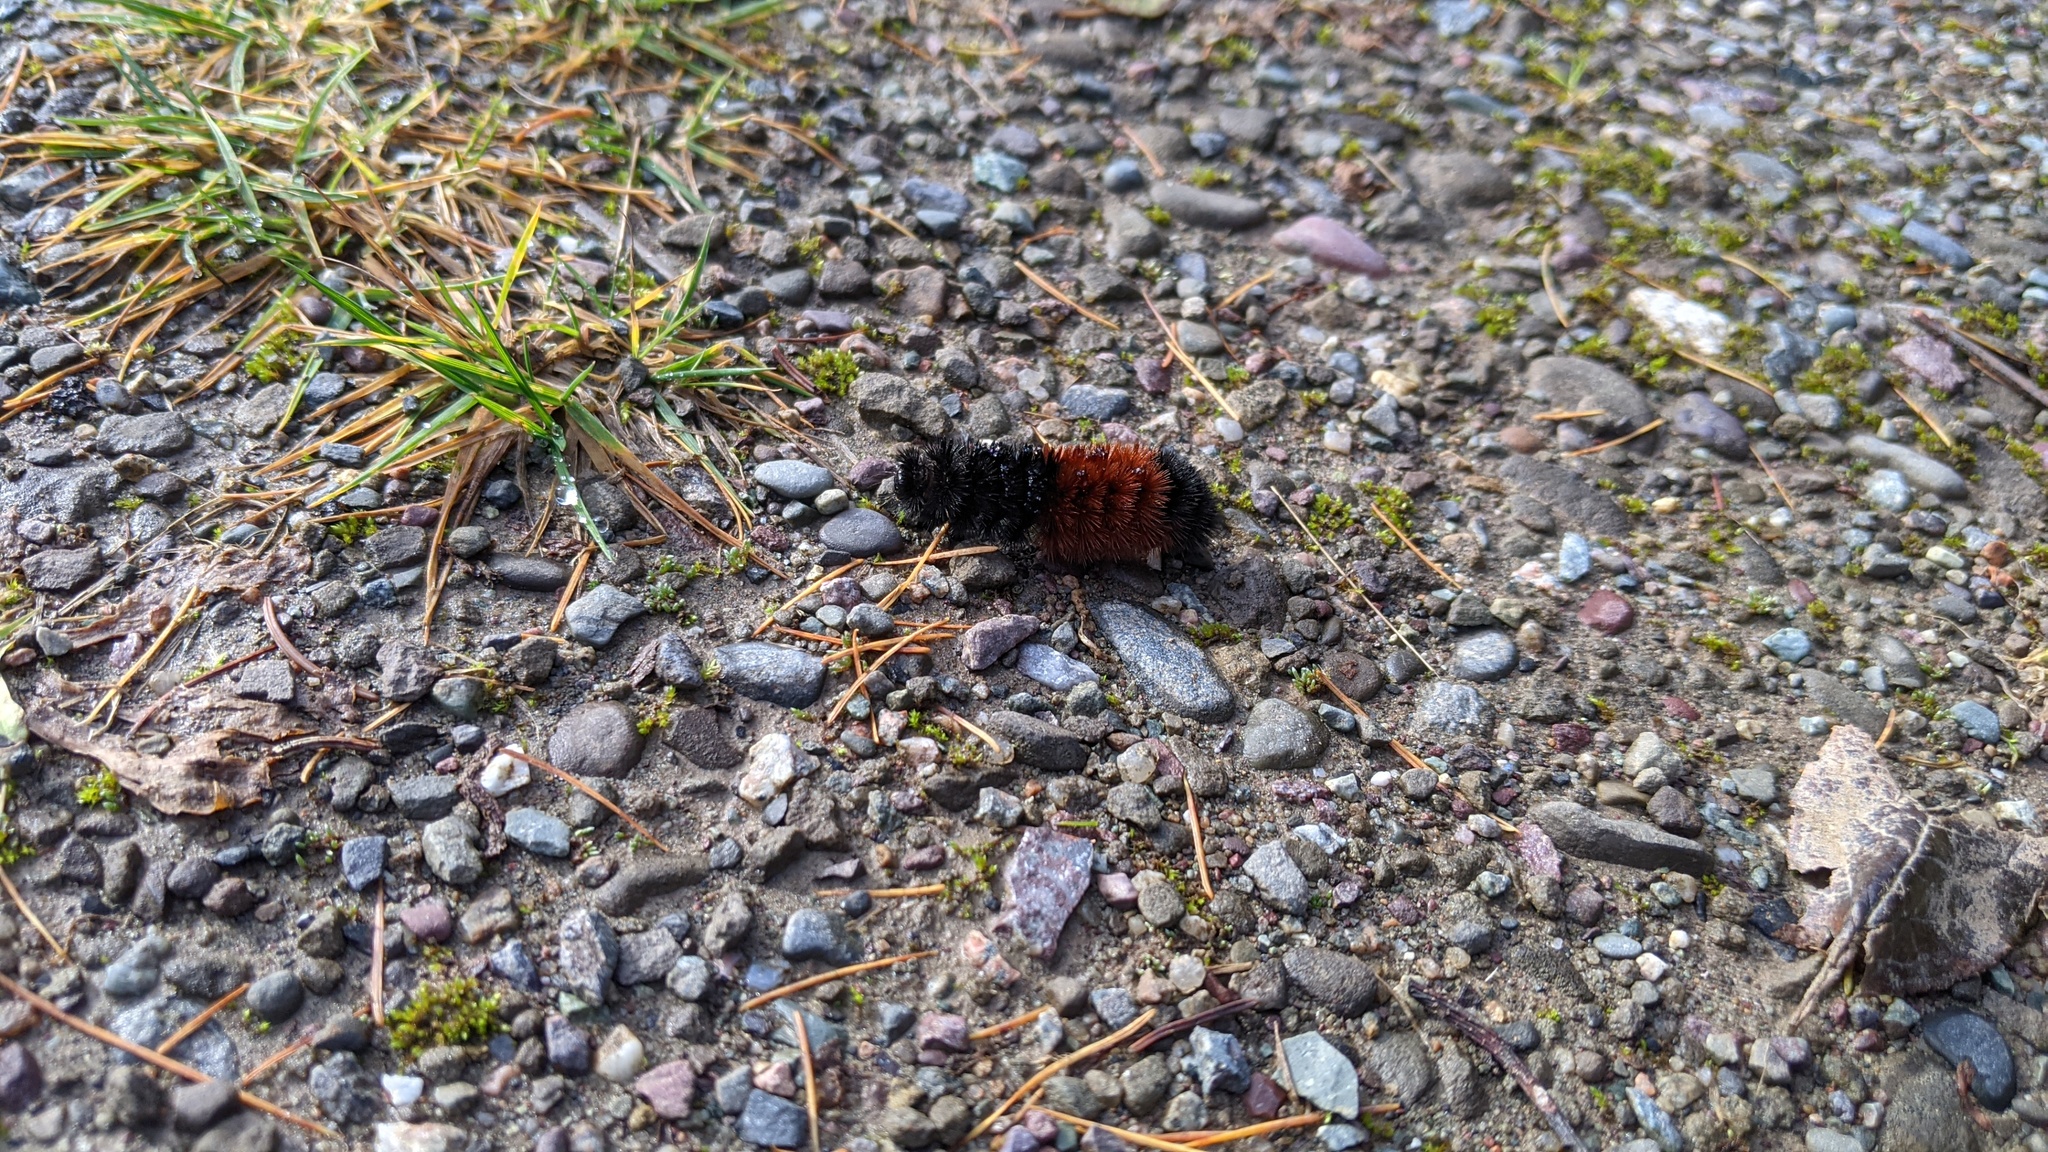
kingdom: Animalia
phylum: Arthropoda
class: Insecta
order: Lepidoptera
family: Erebidae
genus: Pyrrharctia
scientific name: Pyrrharctia isabella
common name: Isabella tiger moth
